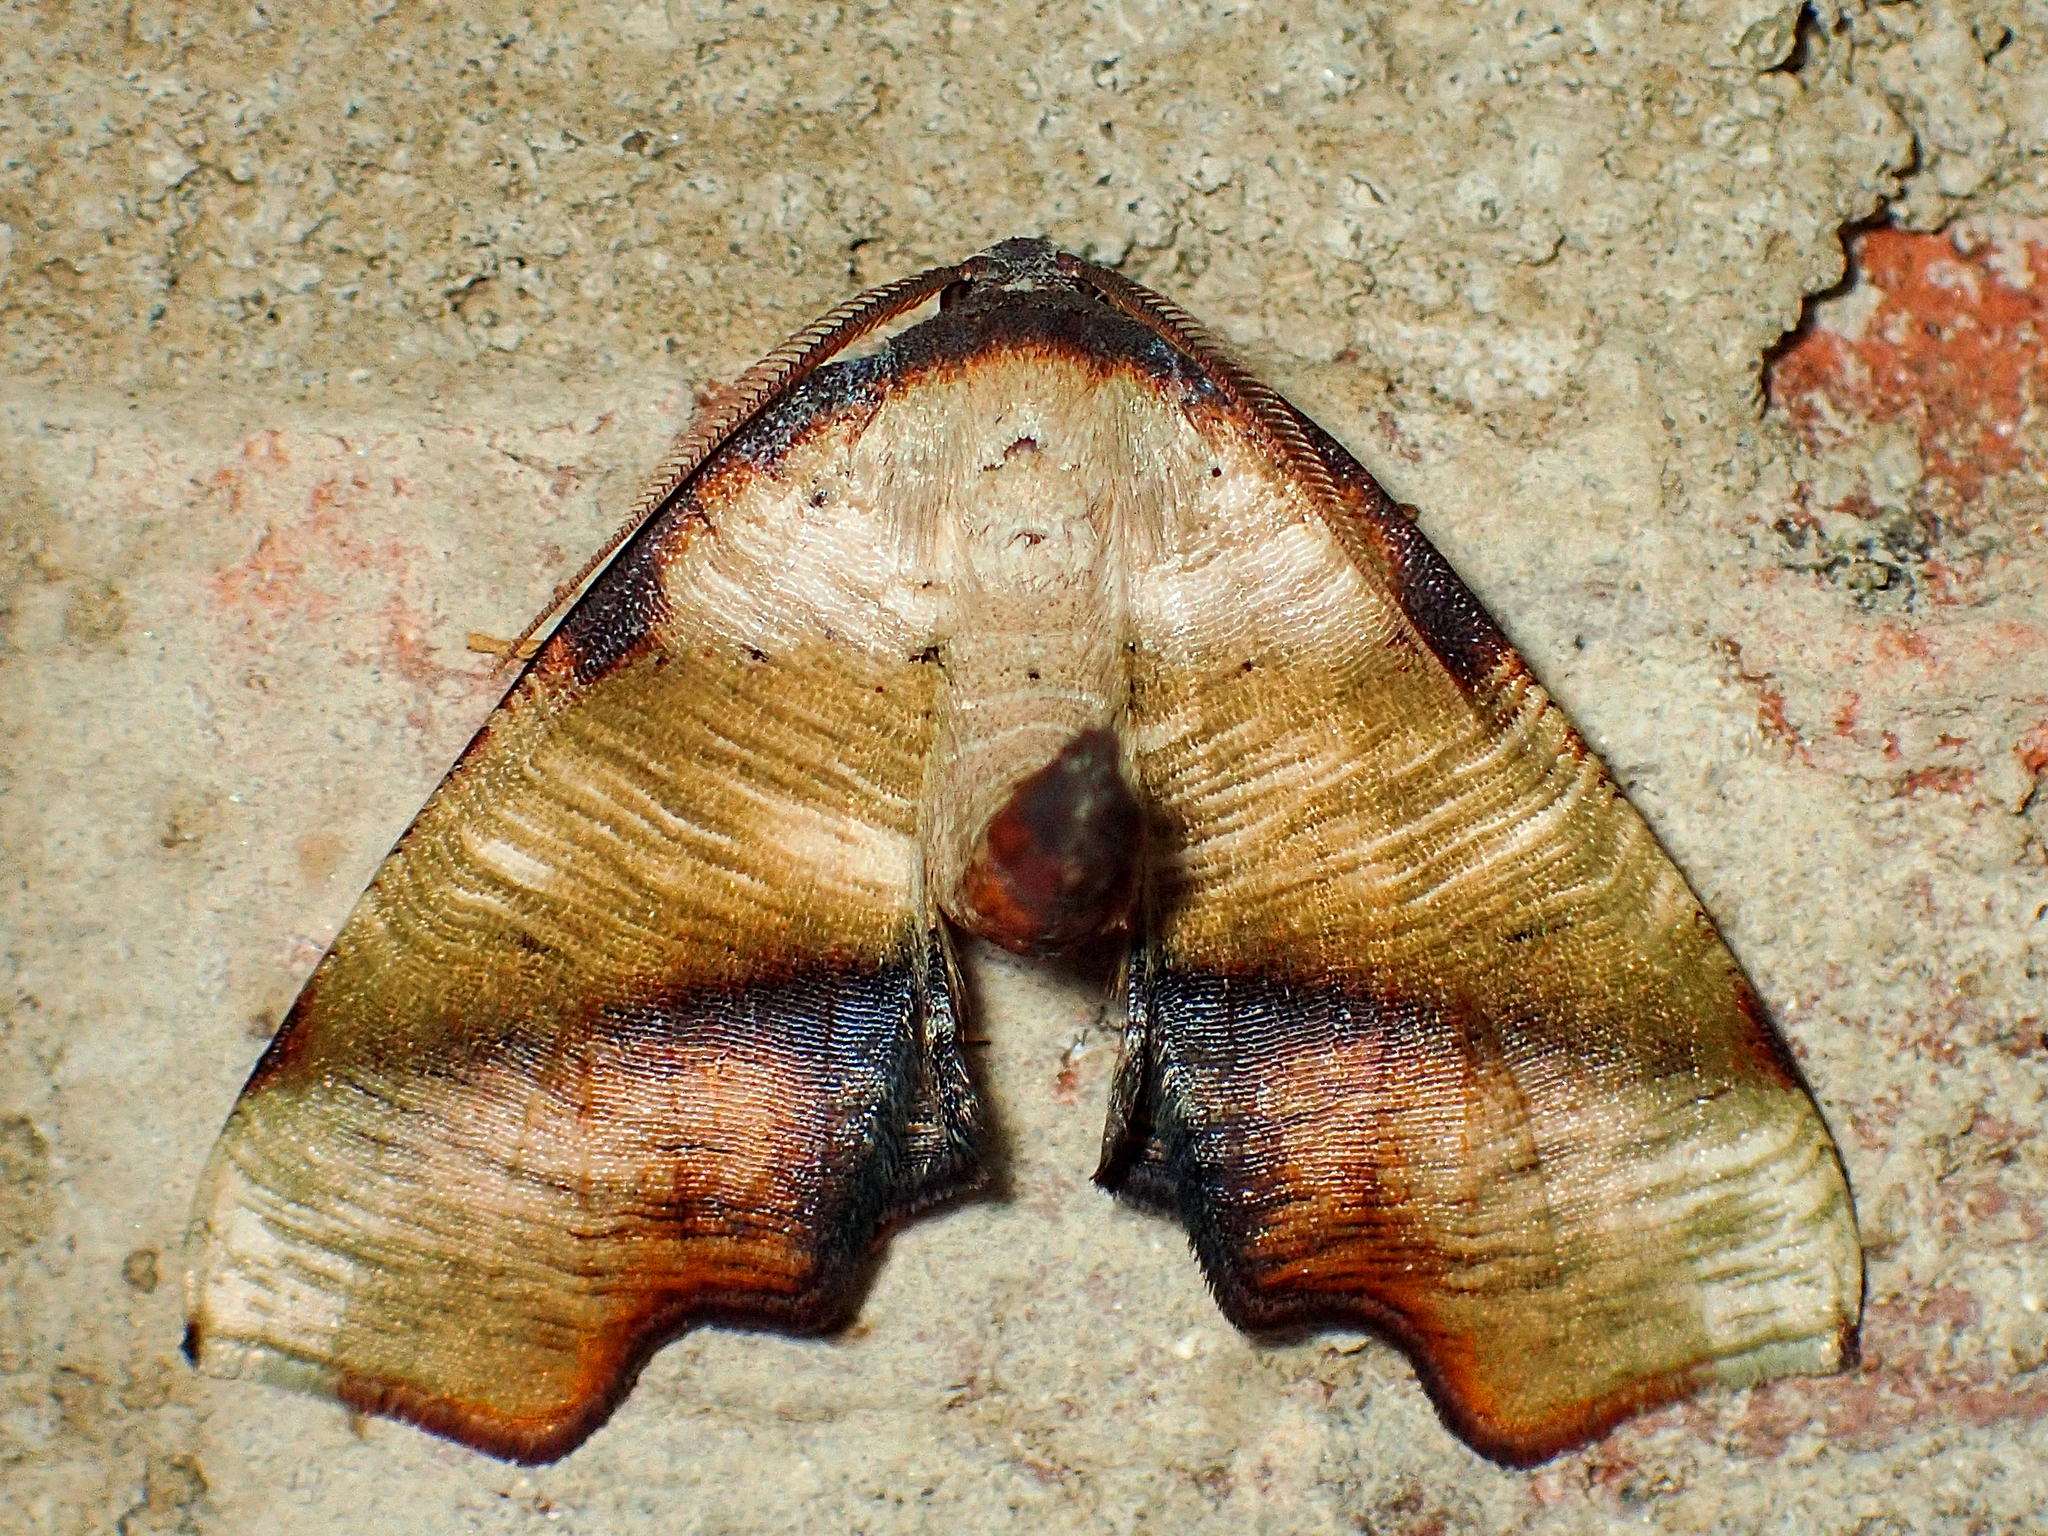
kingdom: Animalia
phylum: Arthropoda
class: Insecta
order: Lepidoptera
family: Geometridae
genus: Plagodis
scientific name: Plagodis fervidaria
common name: Fervid plagodis
